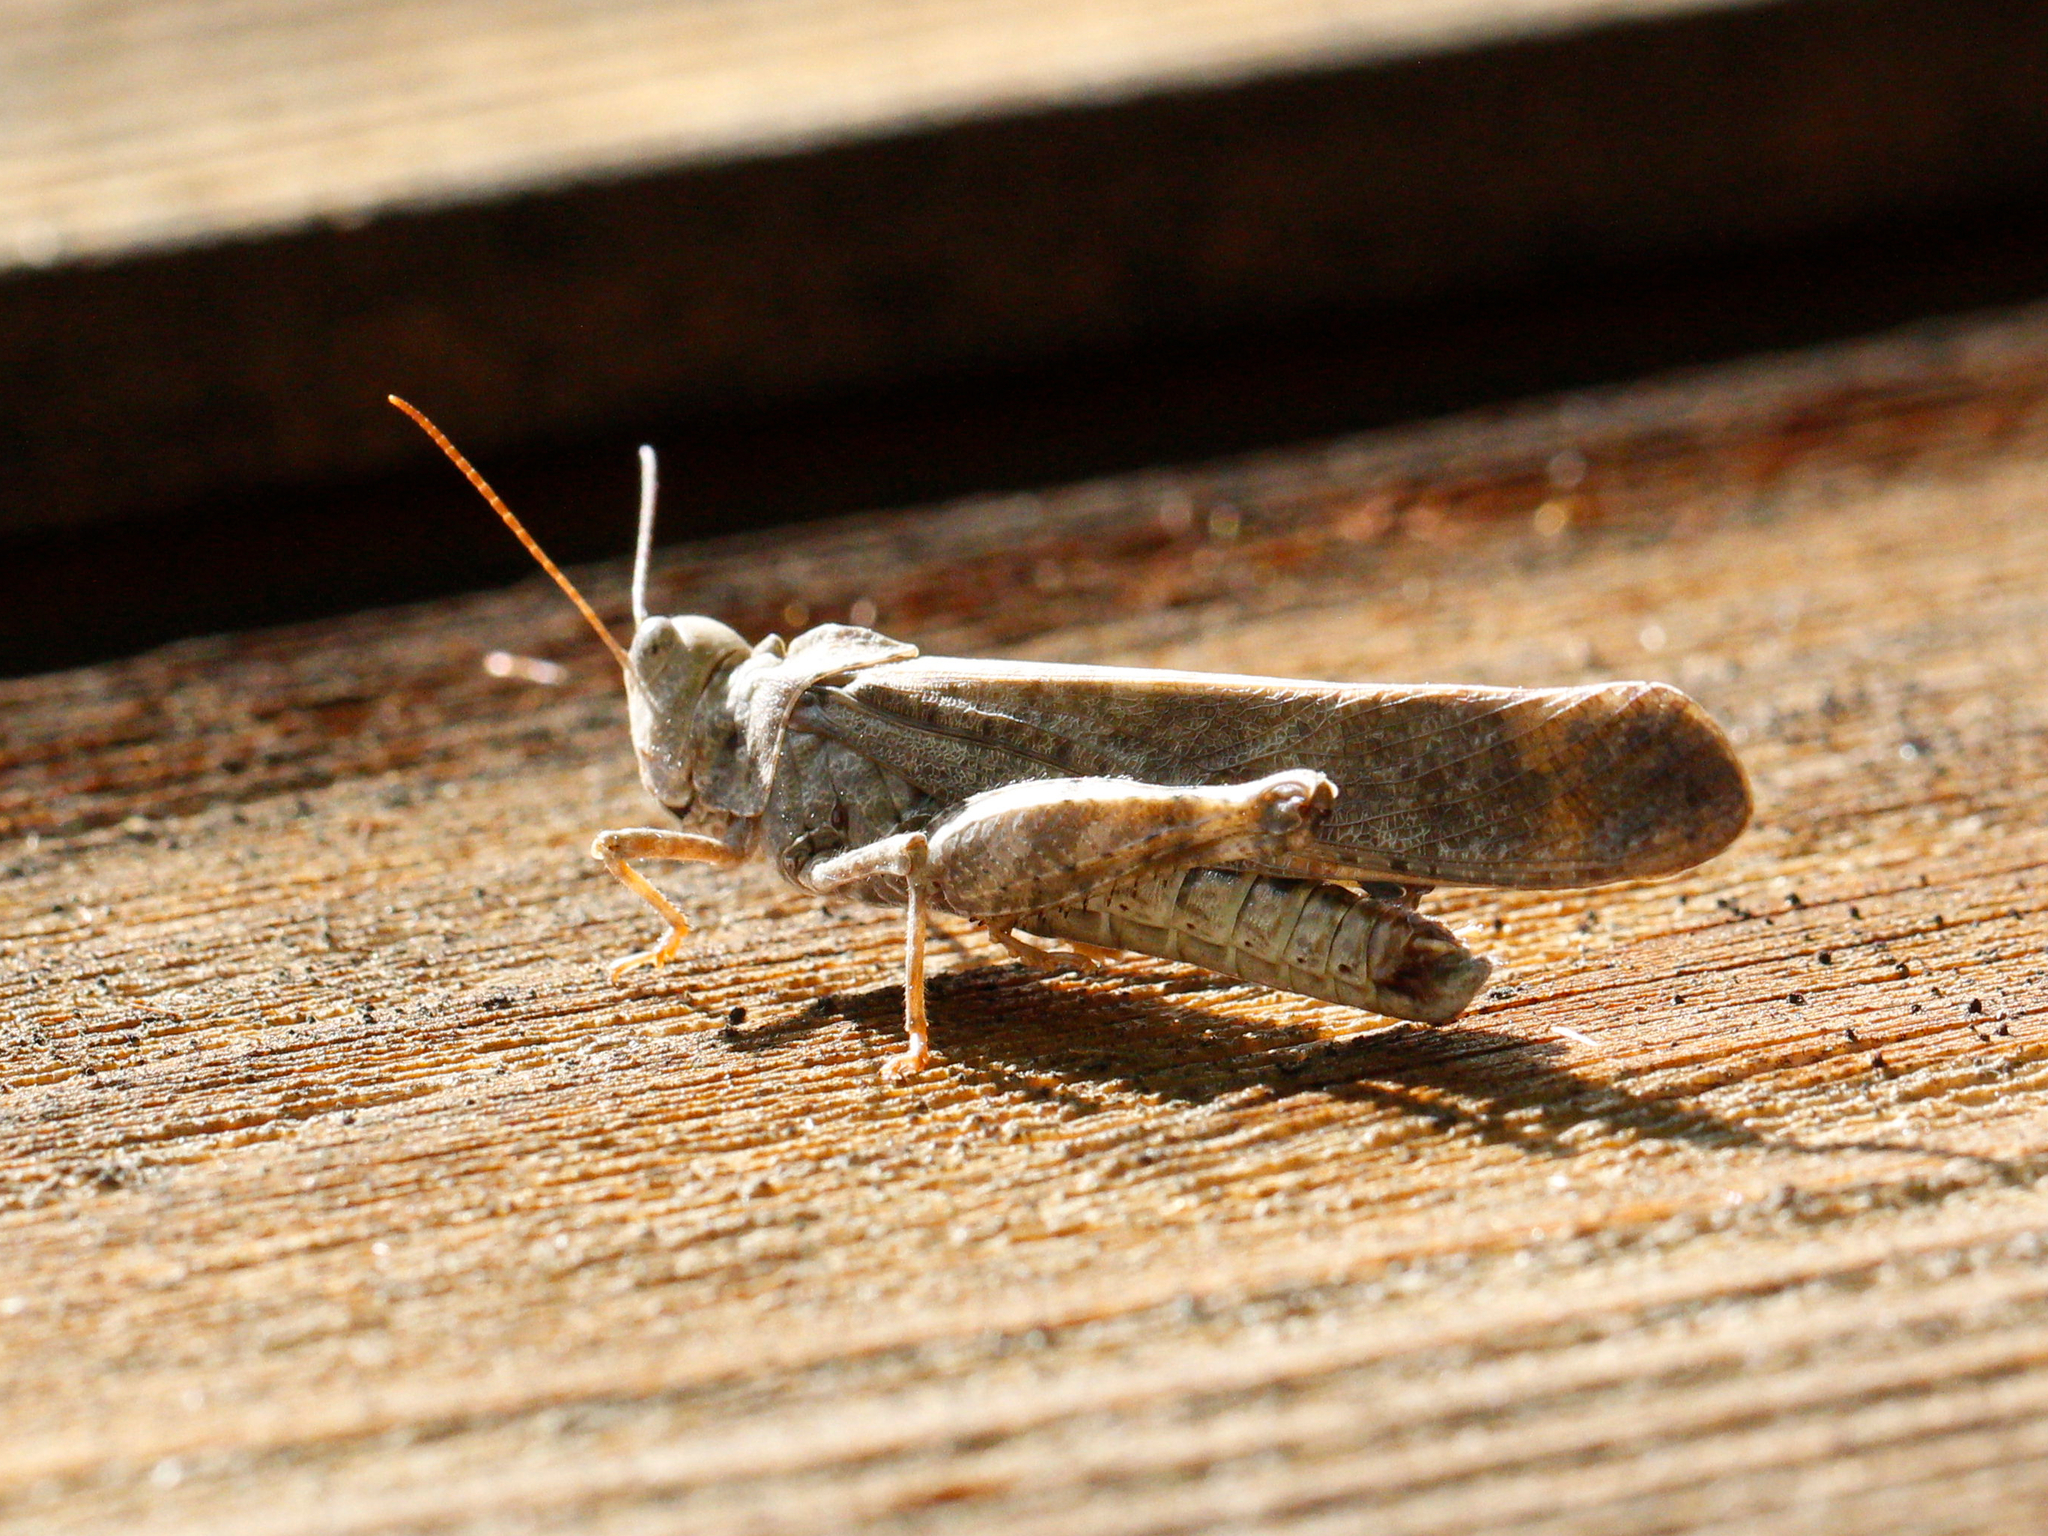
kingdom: Animalia
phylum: Arthropoda
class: Insecta
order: Orthoptera
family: Acrididae
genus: Dissosteira
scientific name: Dissosteira carolina
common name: Carolina grasshopper
